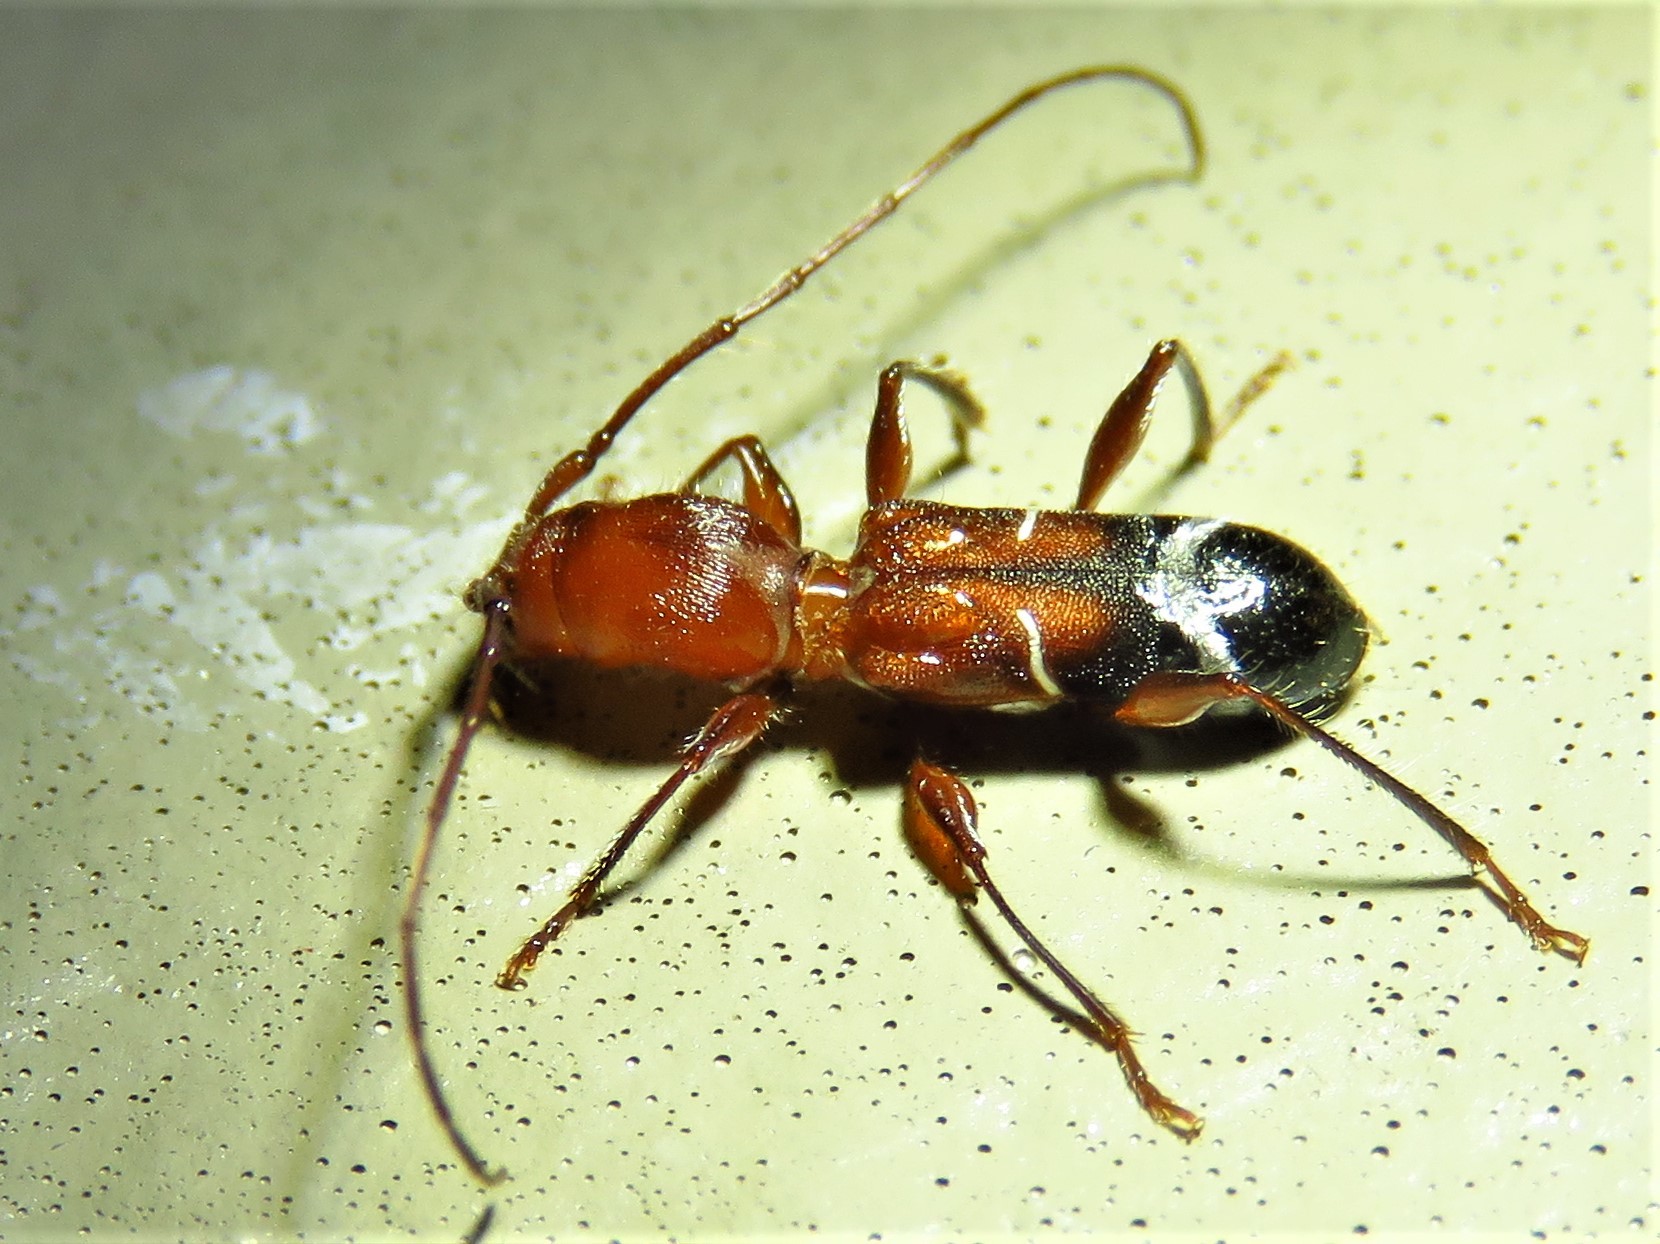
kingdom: Animalia
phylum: Arthropoda
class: Insecta
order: Coleoptera
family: Cerambycidae
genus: Euderces
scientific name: Euderces pini
